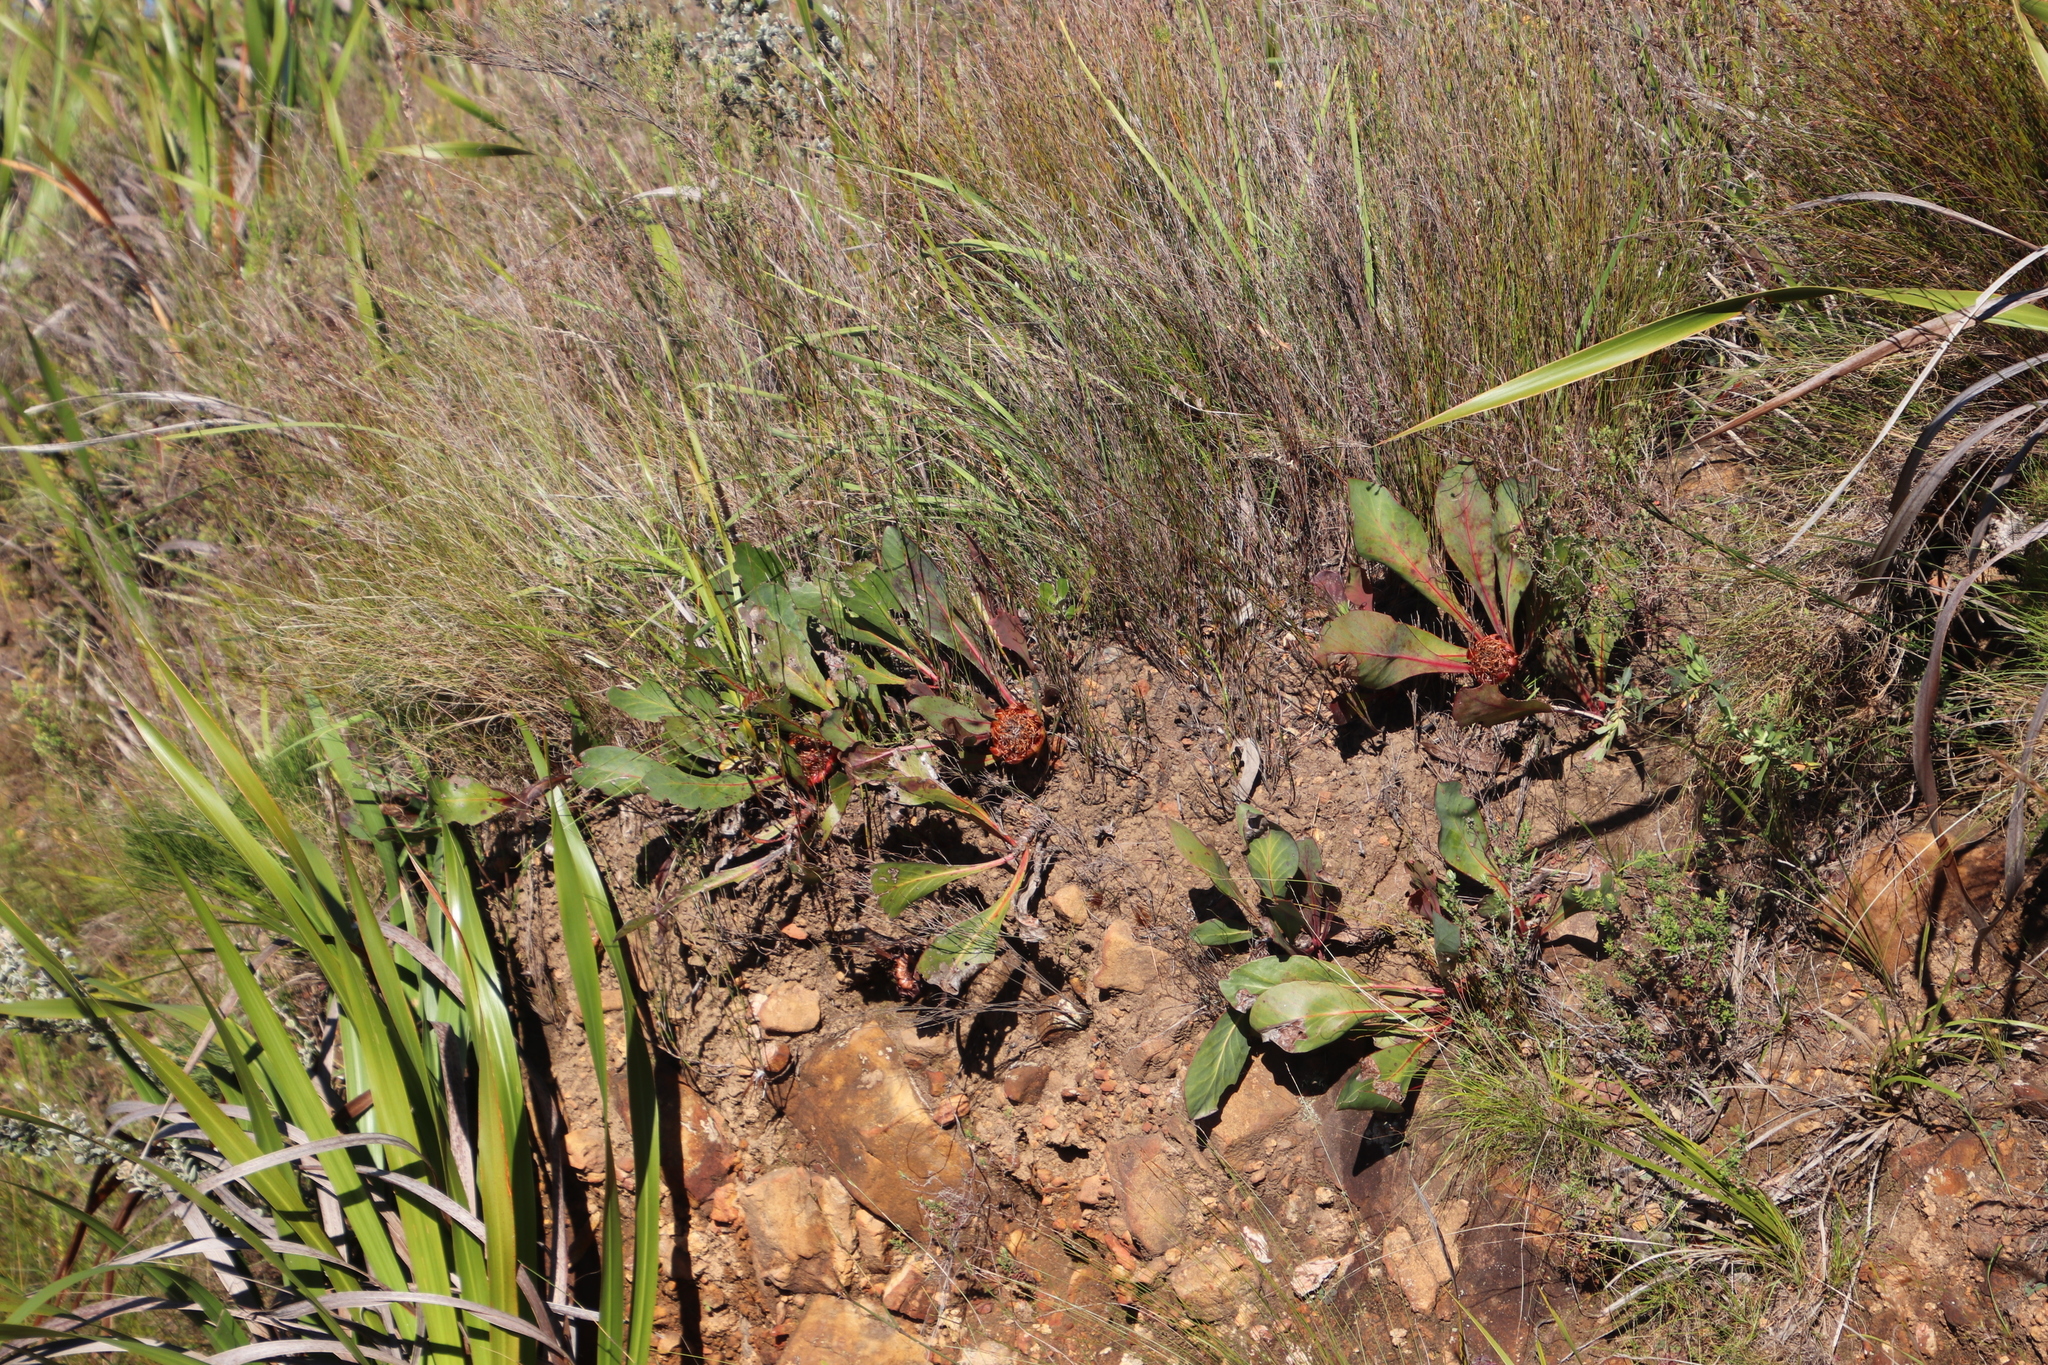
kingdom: Plantae
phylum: Tracheophyta
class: Magnoliopsida
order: Proteales
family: Proteaceae
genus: Protea
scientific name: Protea acaulos
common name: Common ground sugarbush
